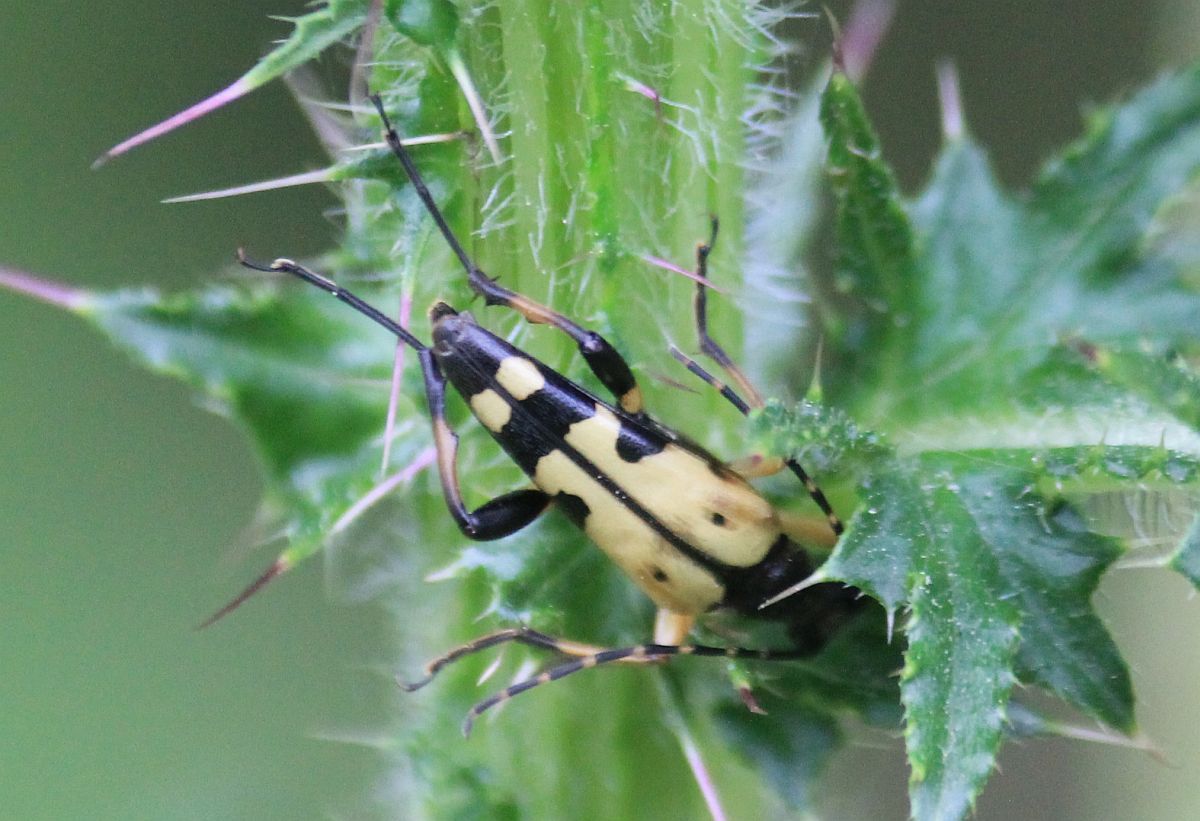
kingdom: Animalia
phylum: Arthropoda
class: Insecta
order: Coleoptera
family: Cerambycidae
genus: Rutpela
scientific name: Rutpela maculata
